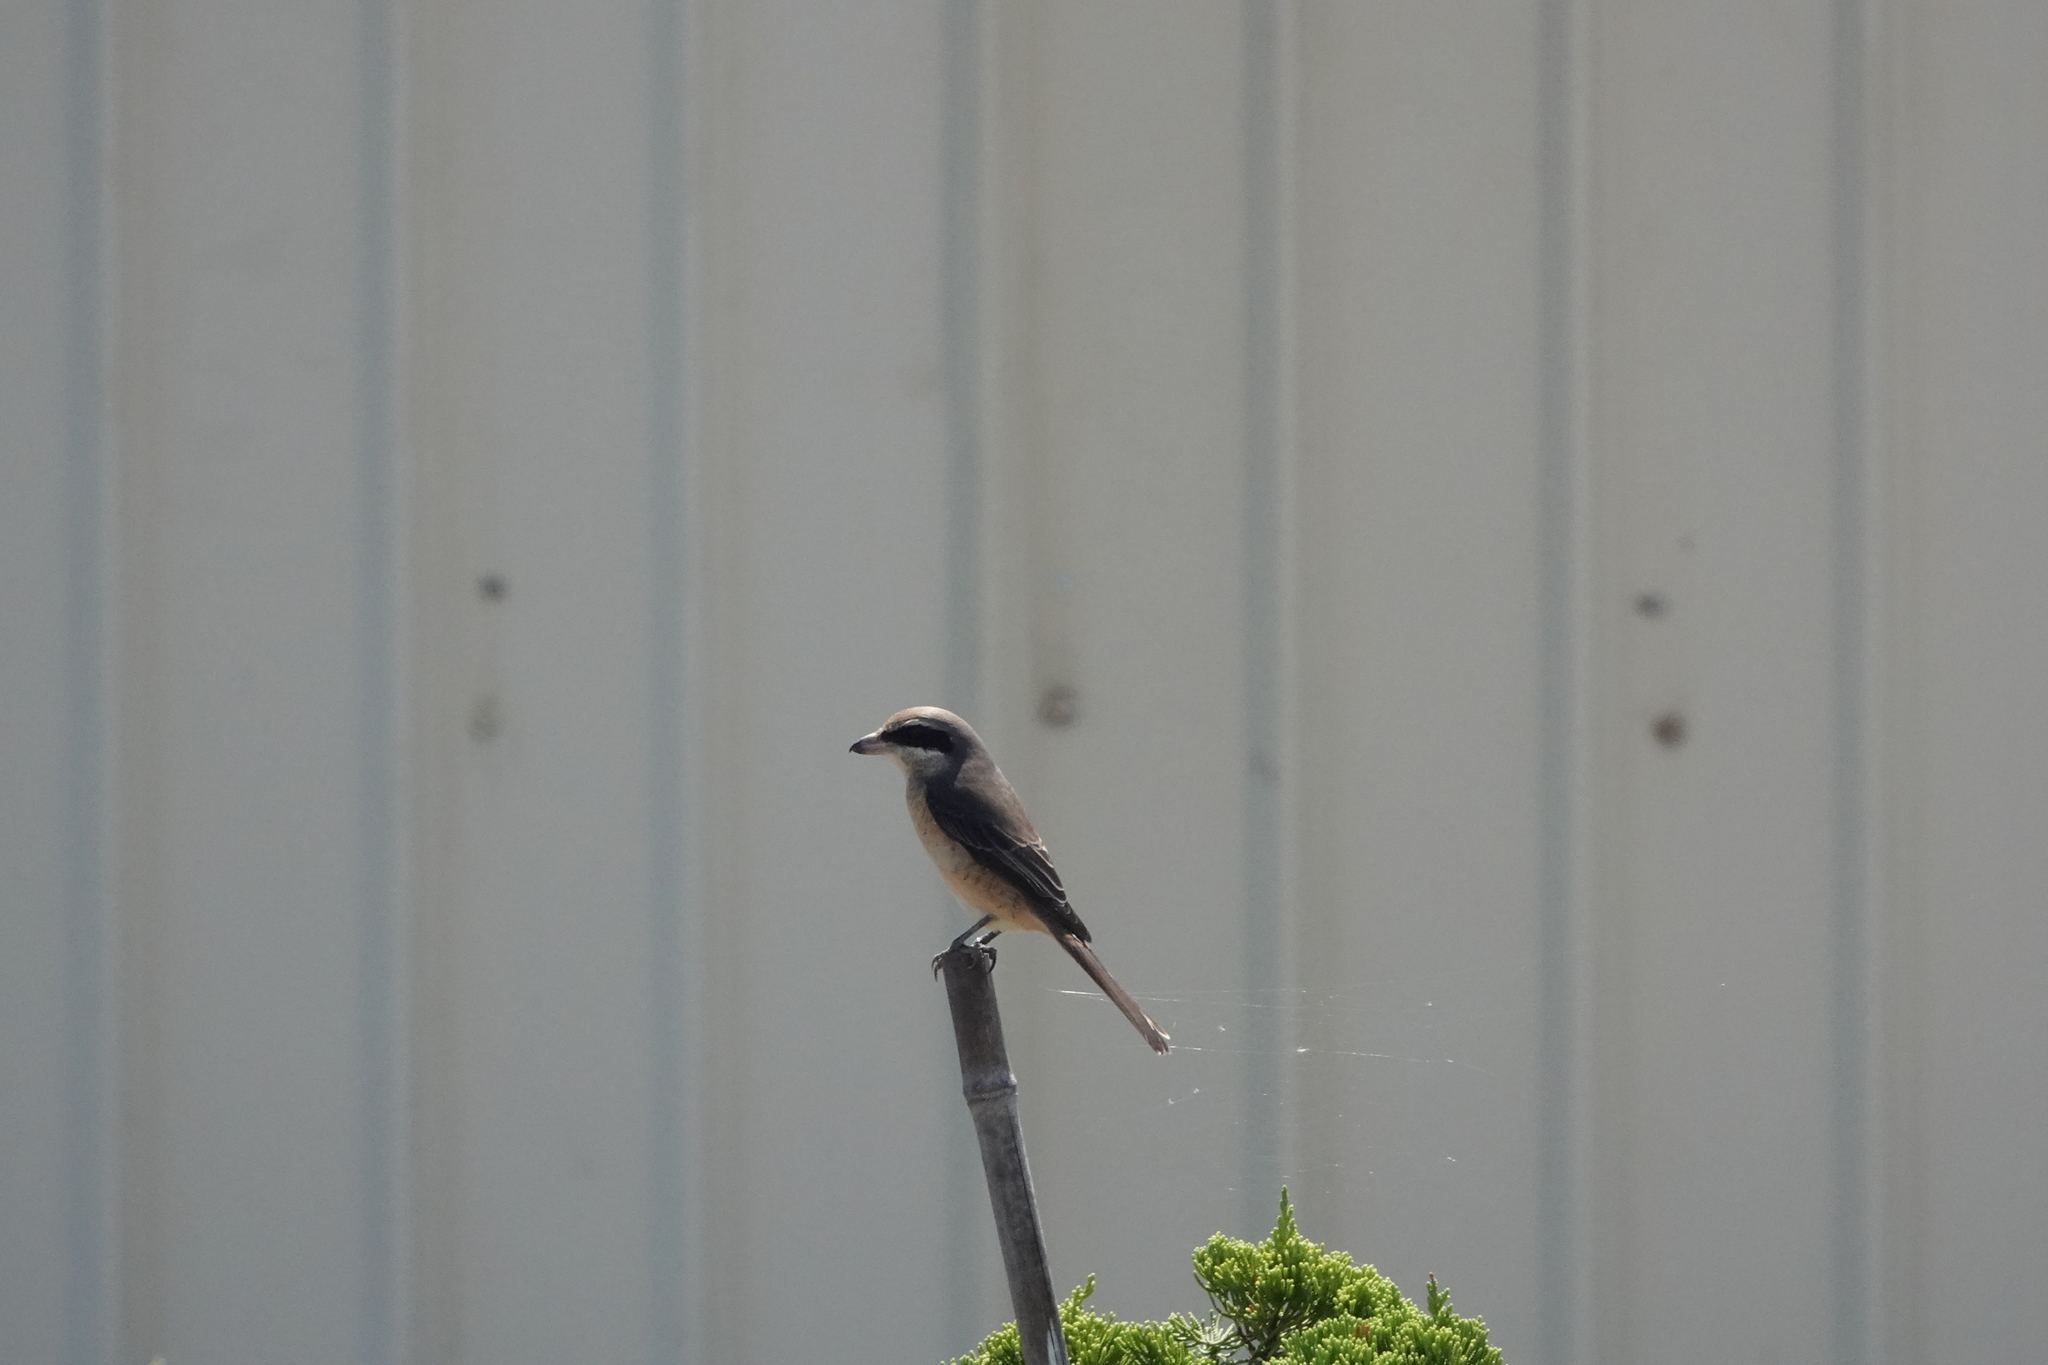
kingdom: Animalia
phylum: Chordata
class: Aves
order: Passeriformes
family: Laniidae
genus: Lanius
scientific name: Lanius cristatus
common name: Brown shrike
